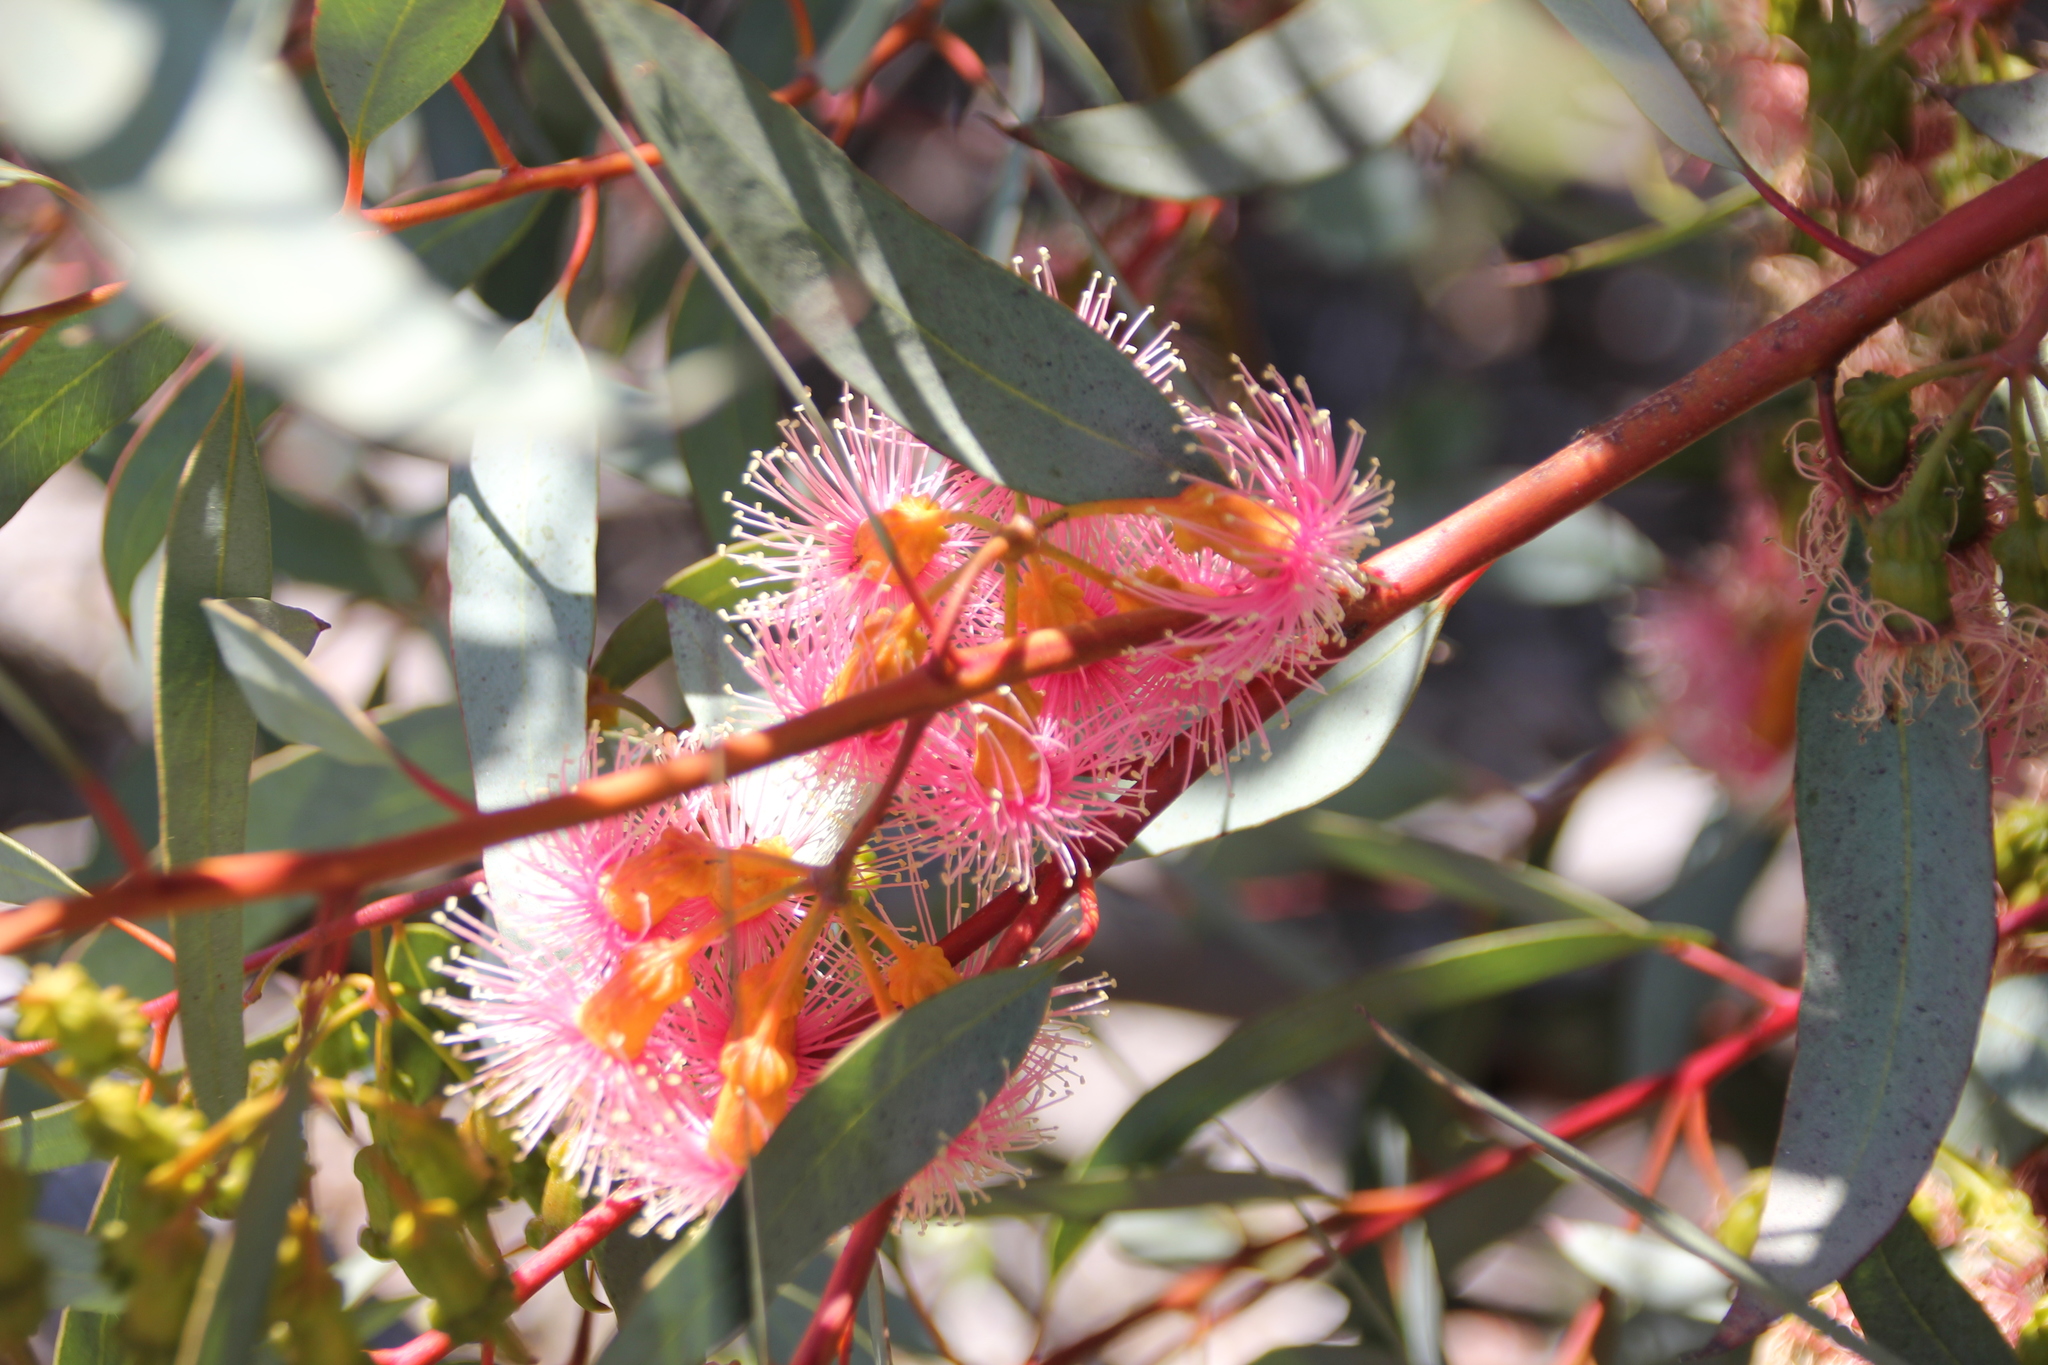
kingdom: Plantae
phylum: Tracheophyta
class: Magnoliopsida
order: Myrtales
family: Myrtaceae
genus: Eucalyptus
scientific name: Eucalyptus torquata
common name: Coral gum
